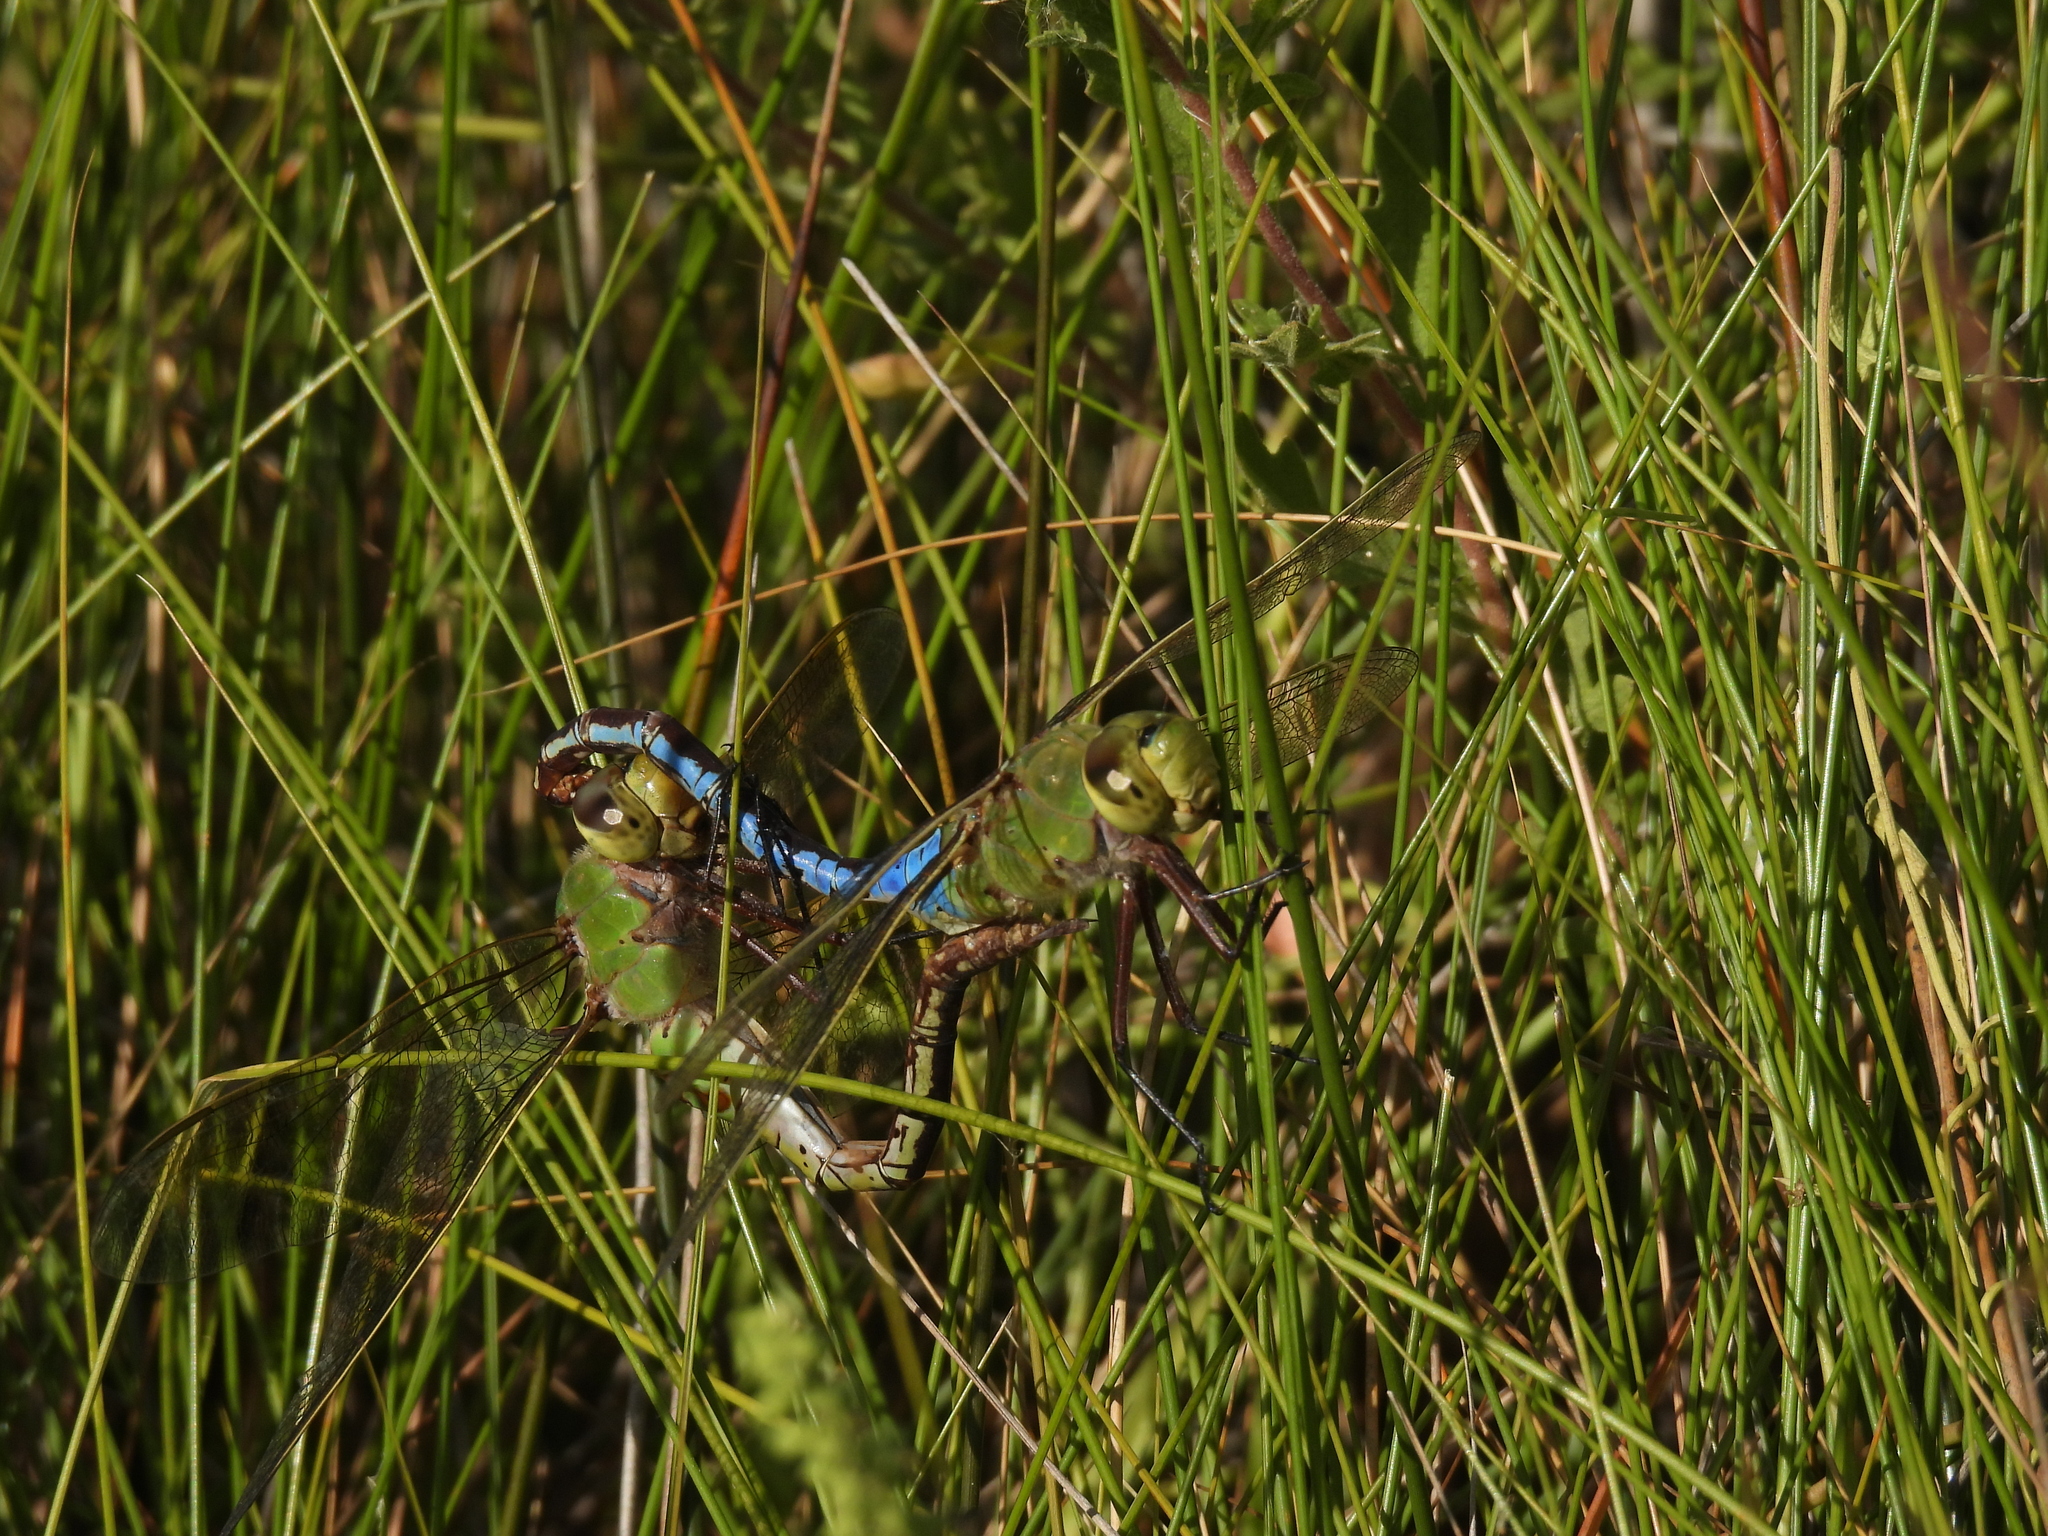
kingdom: Animalia
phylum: Arthropoda
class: Insecta
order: Odonata
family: Aeshnidae
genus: Anax
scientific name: Anax junius
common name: Common green darner
